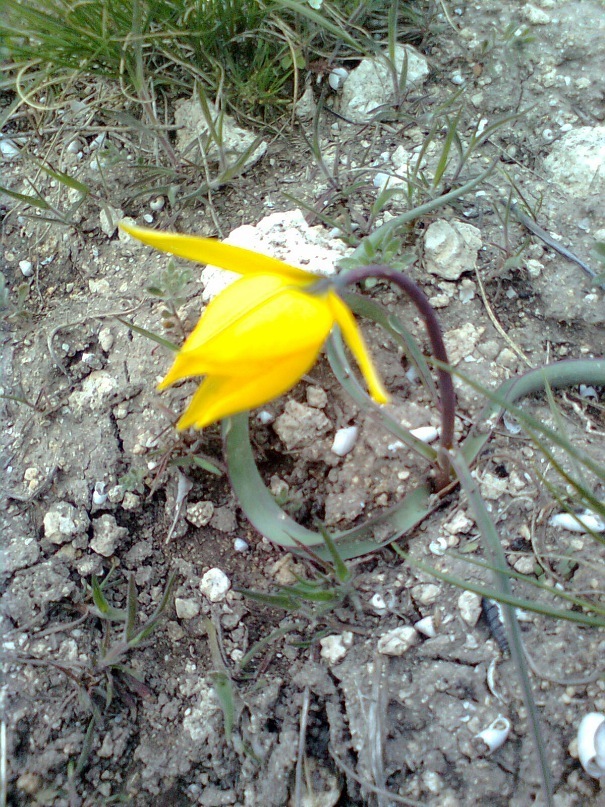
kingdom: Plantae
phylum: Tracheophyta
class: Liliopsida
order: Liliales
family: Liliaceae
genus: Tulipa
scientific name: Tulipa sylvestris
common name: Wild tulip
